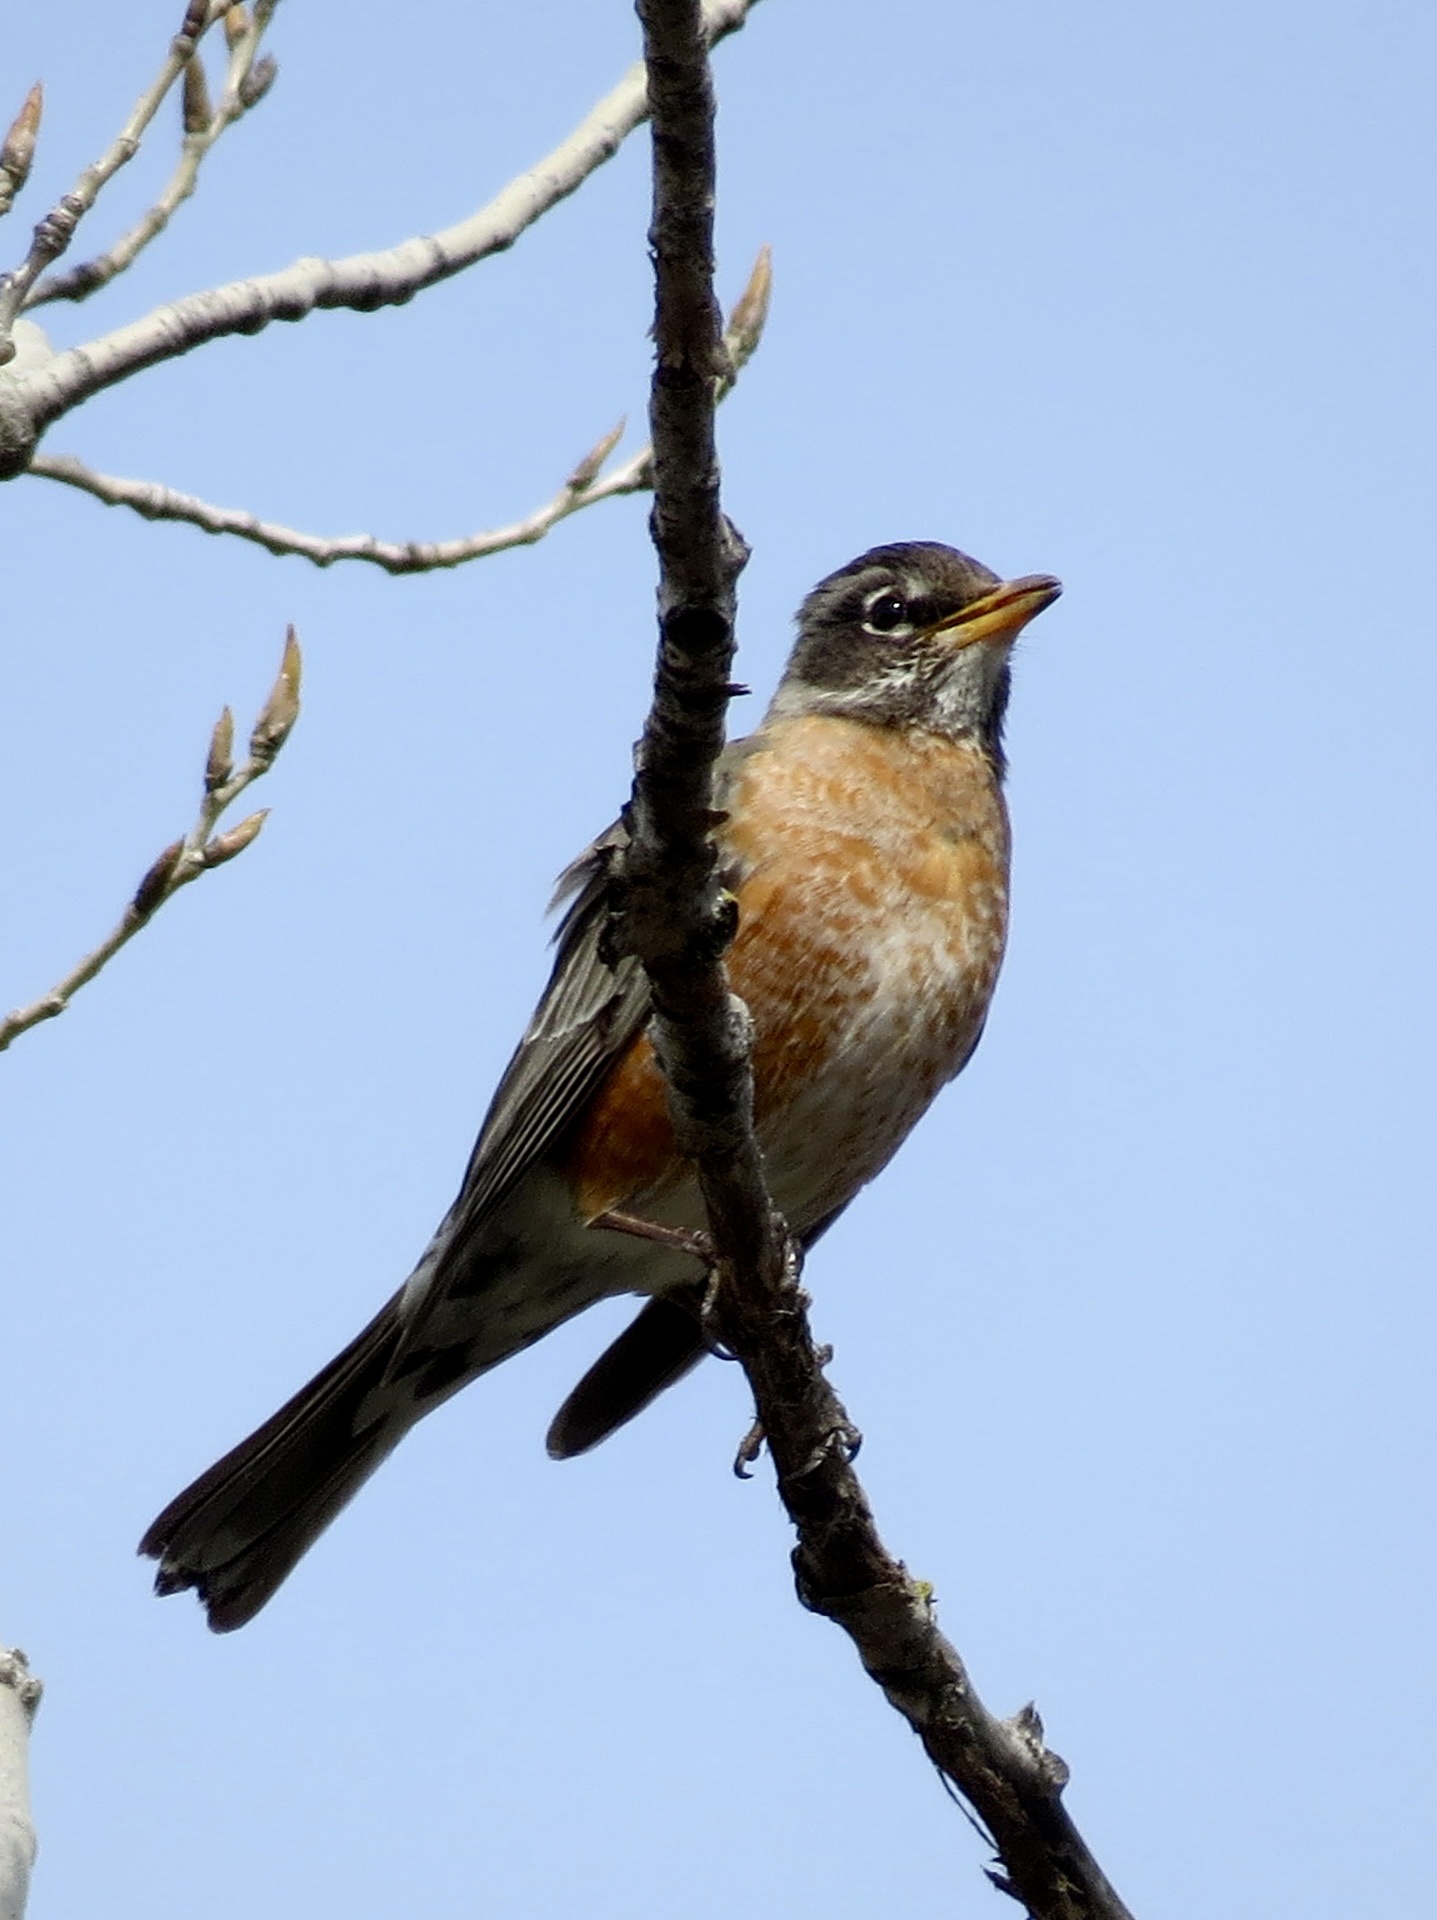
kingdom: Animalia
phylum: Chordata
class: Aves
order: Passeriformes
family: Turdidae
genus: Turdus
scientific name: Turdus migratorius
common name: American robin
